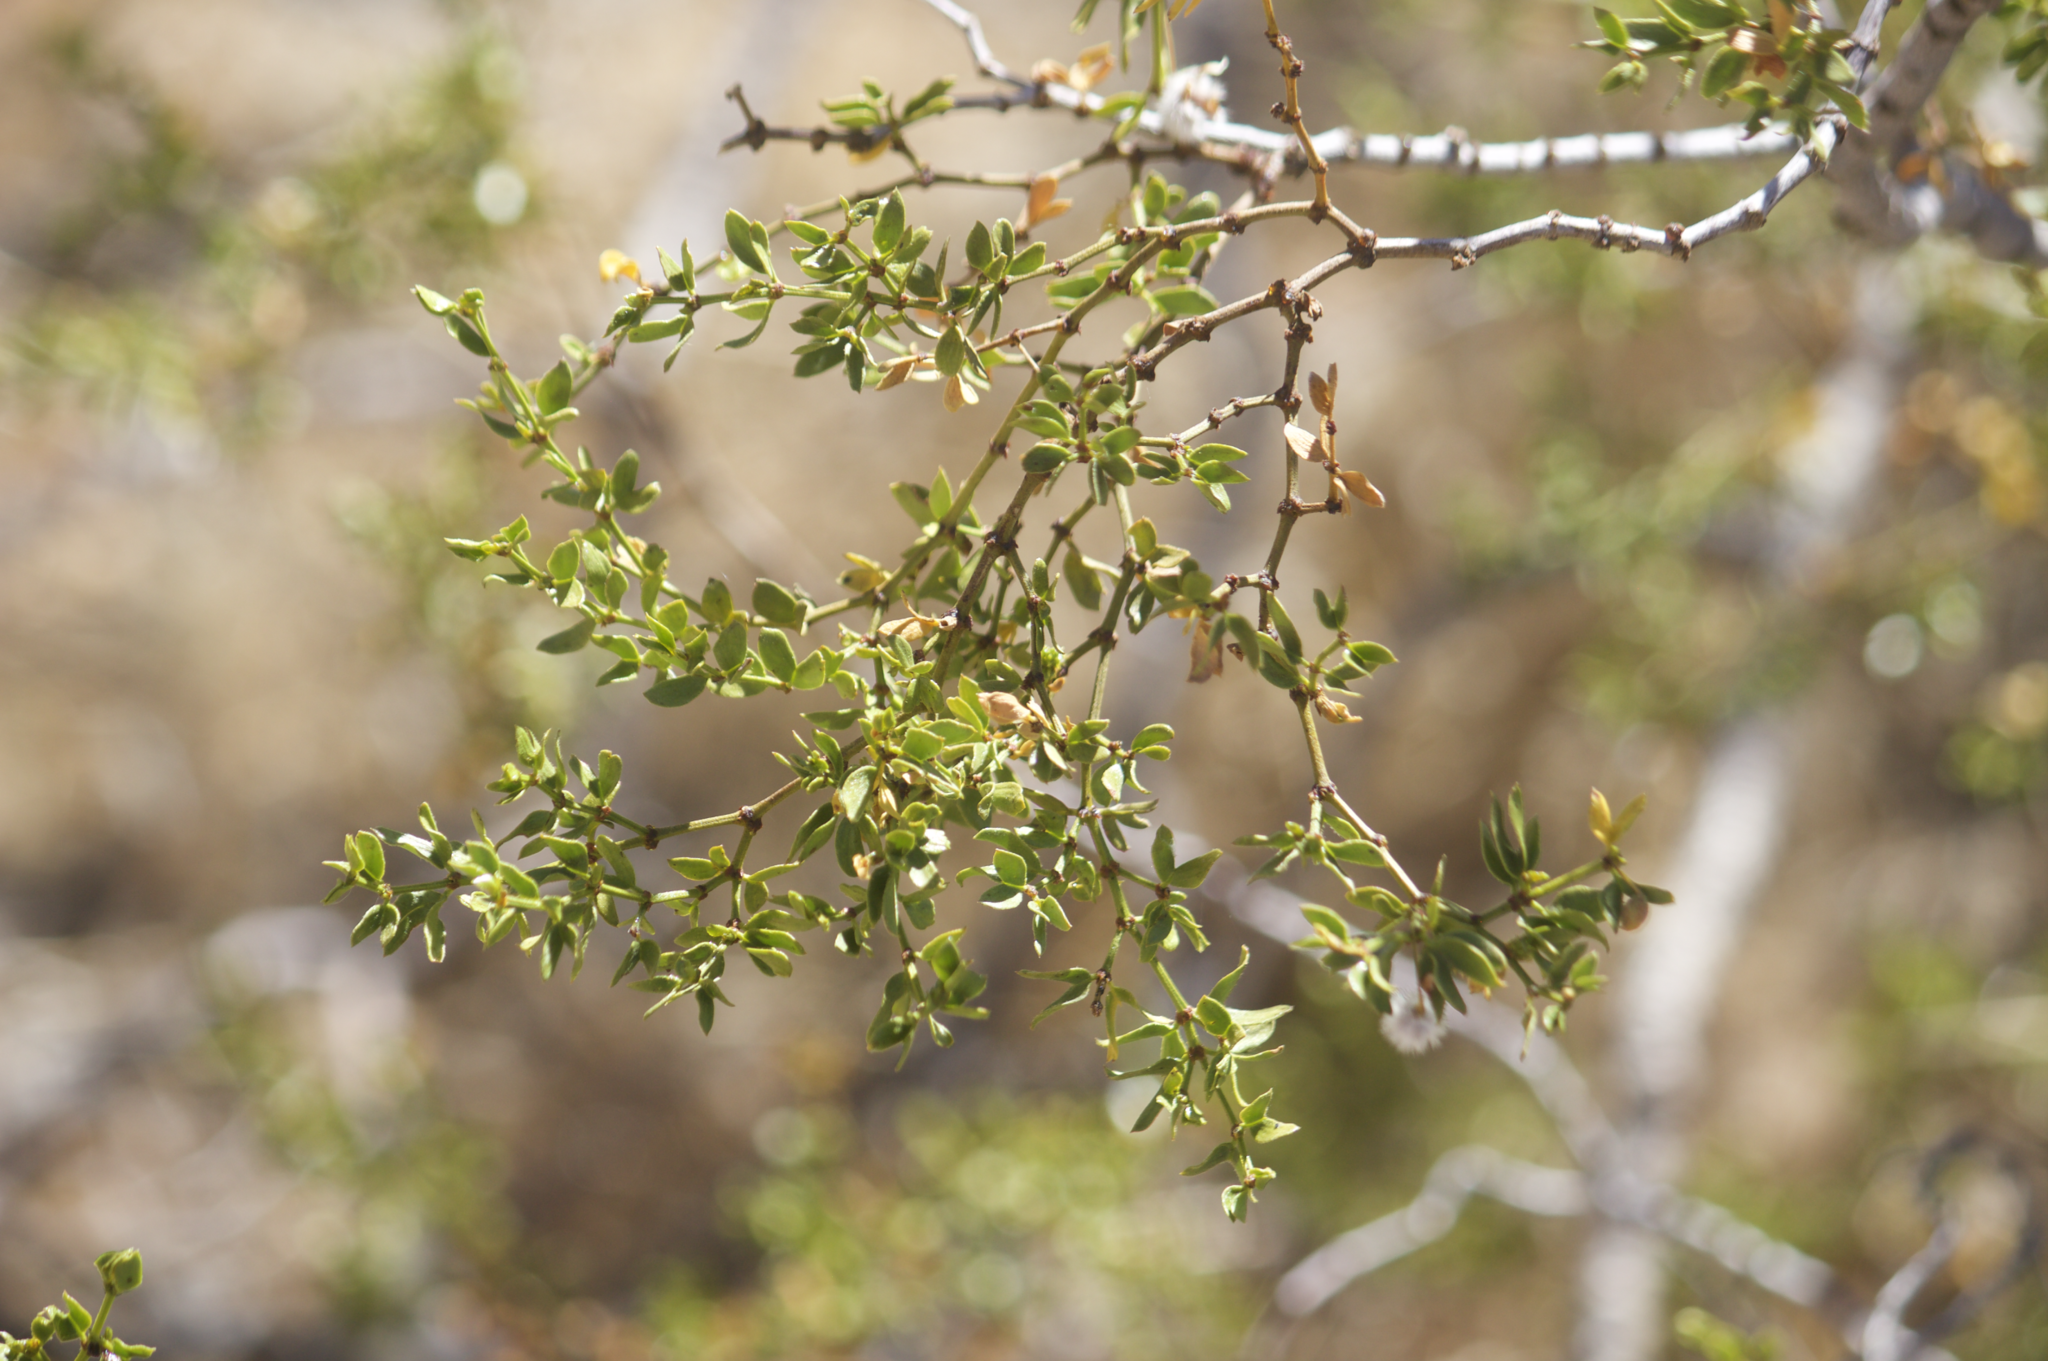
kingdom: Plantae
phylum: Tracheophyta
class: Magnoliopsida
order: Zygophyllales
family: Zygophyllaceae
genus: Larrea
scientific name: Larrea tridentata
